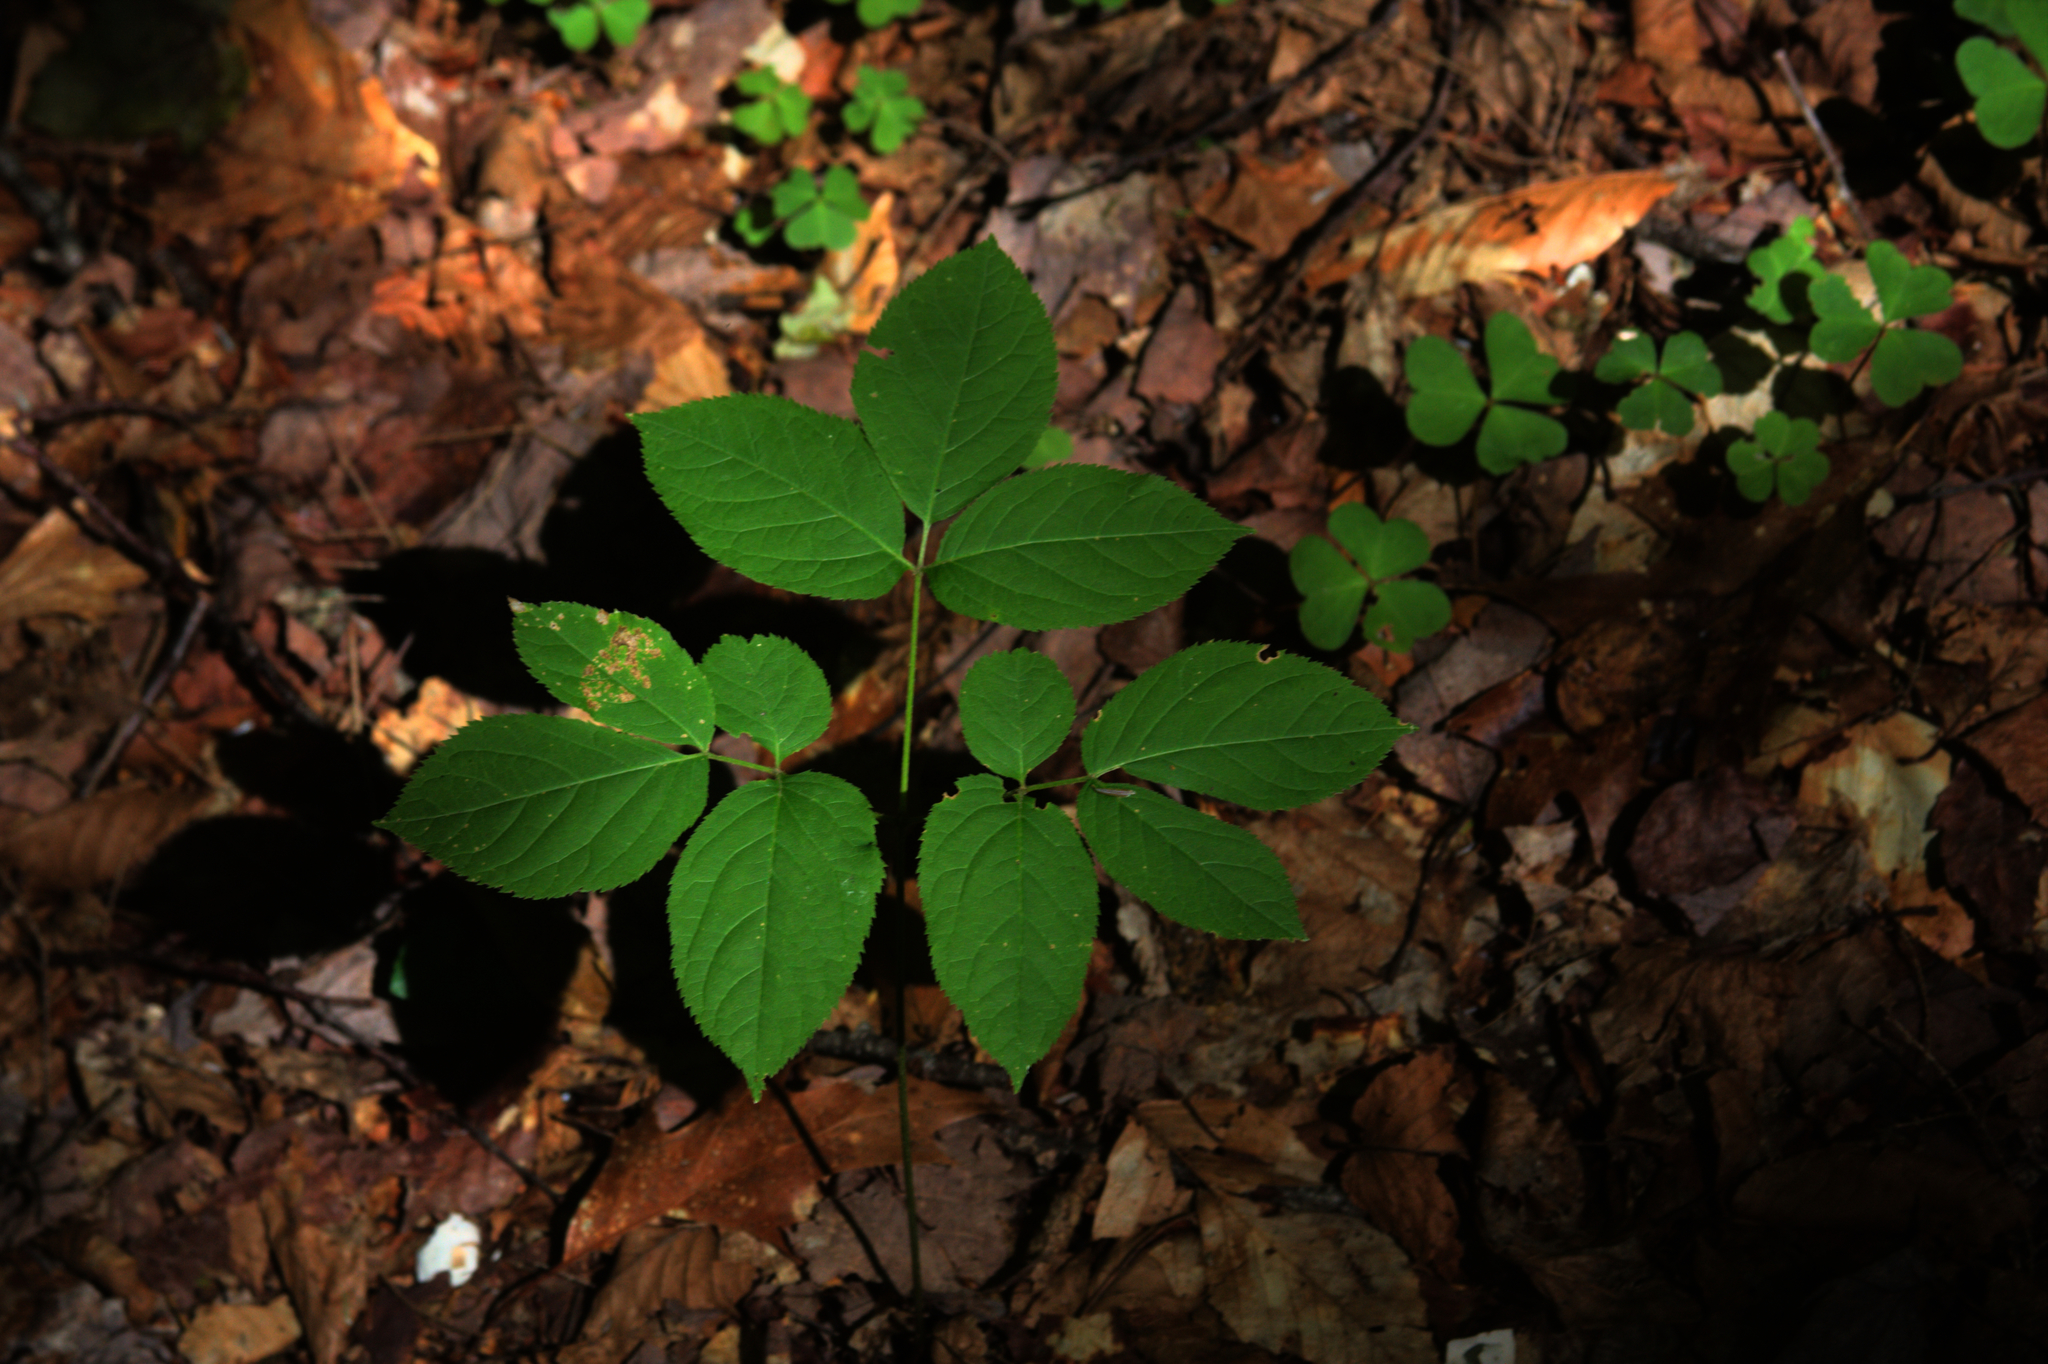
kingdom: Plantae
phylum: Tracheophyta
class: Magnoliopsida
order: Apiales
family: Araliaceae
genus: Aralia
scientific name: Aralia nudicaulis
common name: Wild sarsaparilla
